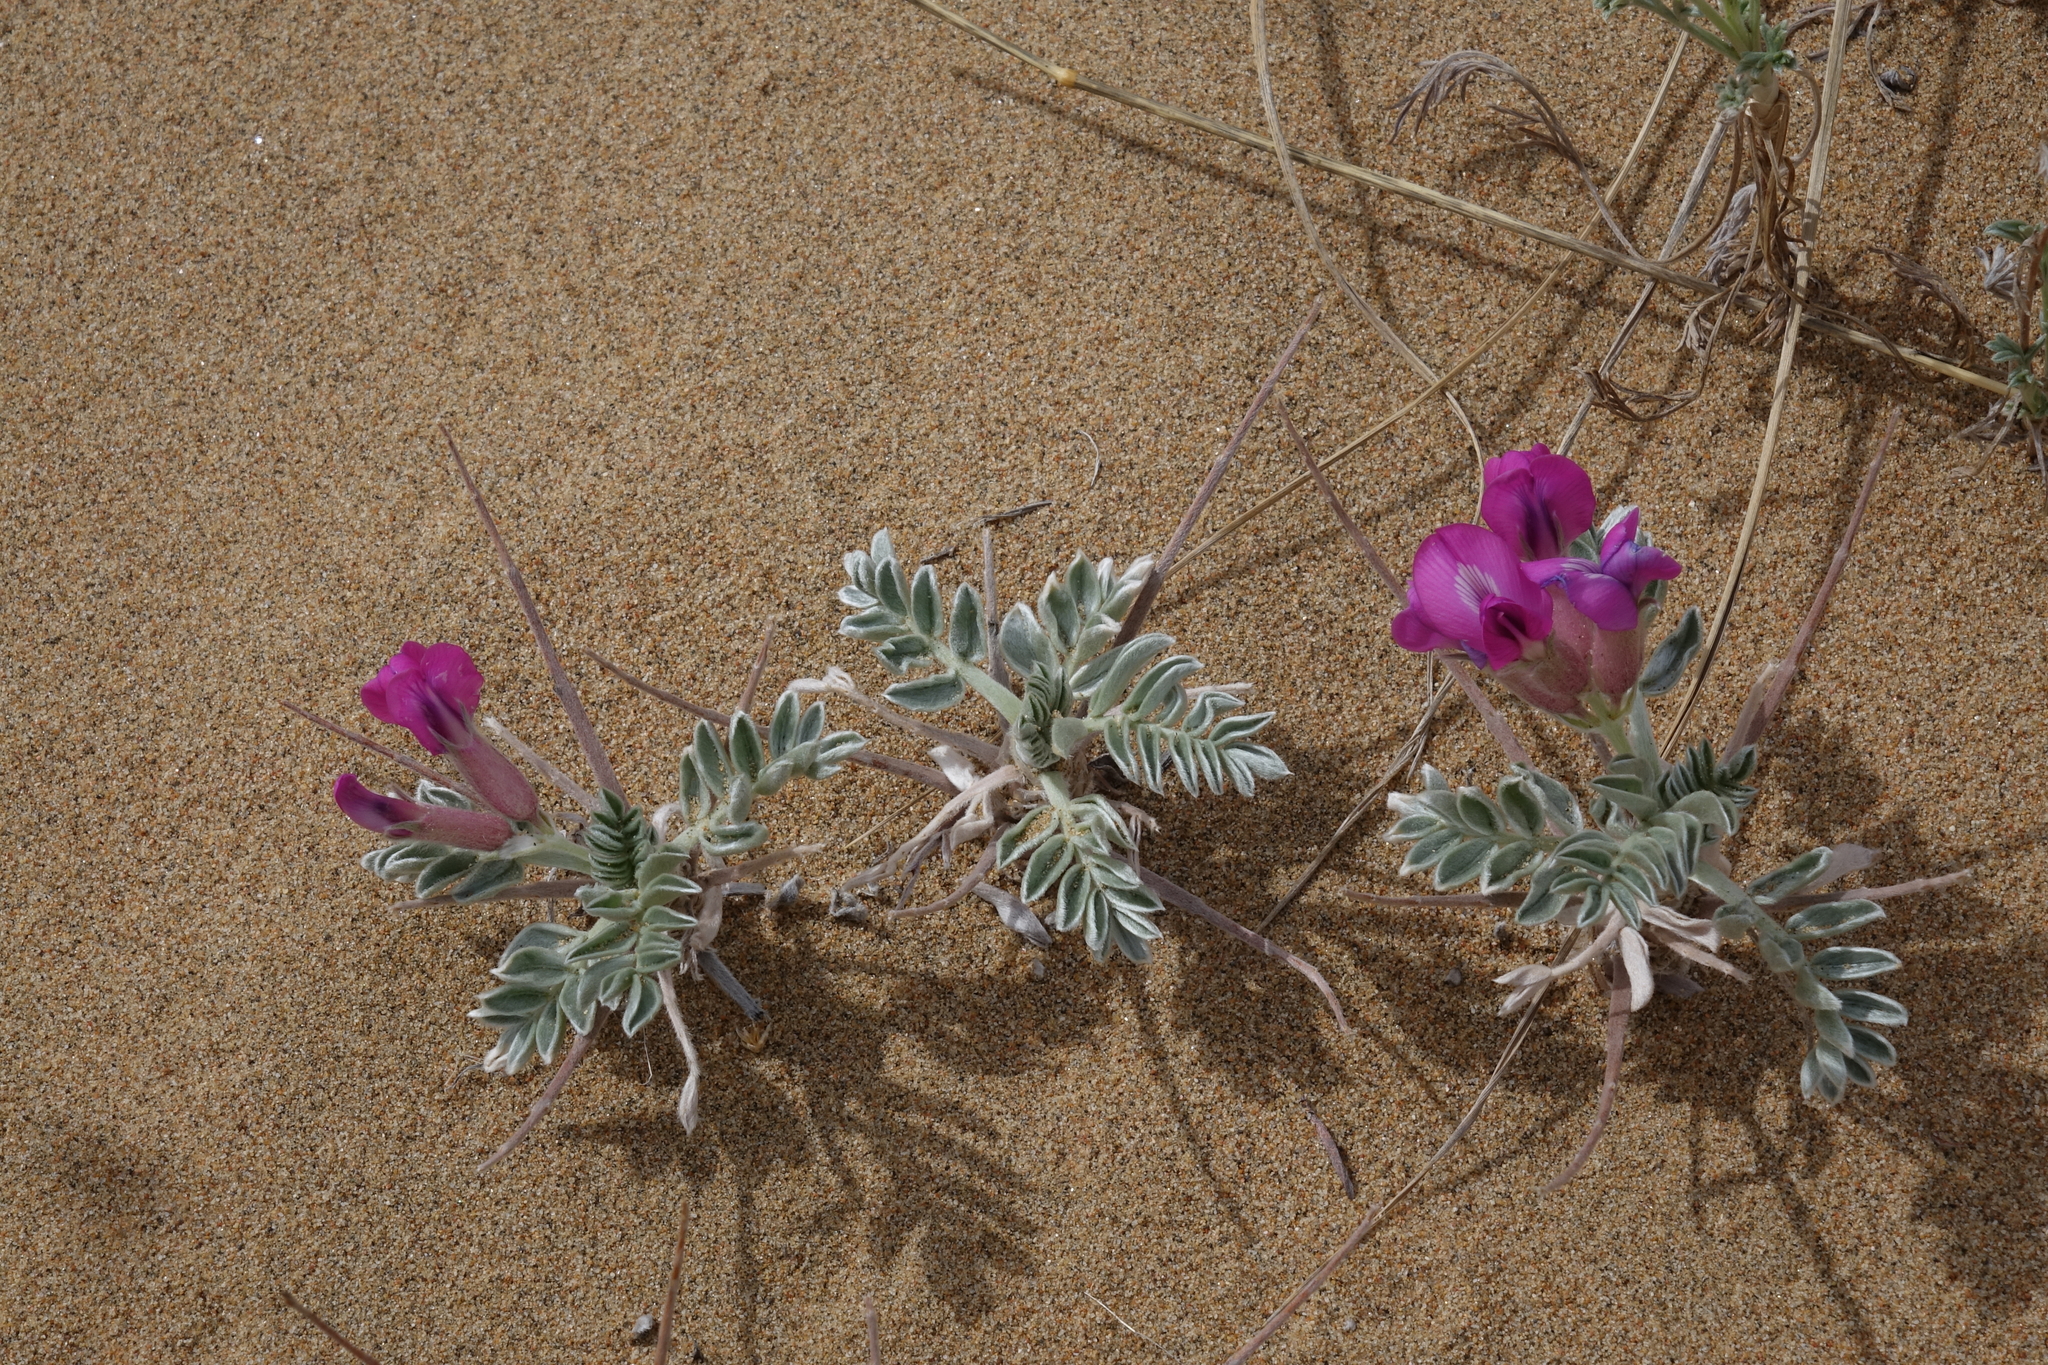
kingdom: Plantae
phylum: Tracheophyta
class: Magnoliopsida
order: Fabales
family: Fabaceae
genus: Oxytropis
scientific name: Oxytropis tragacanthoides
